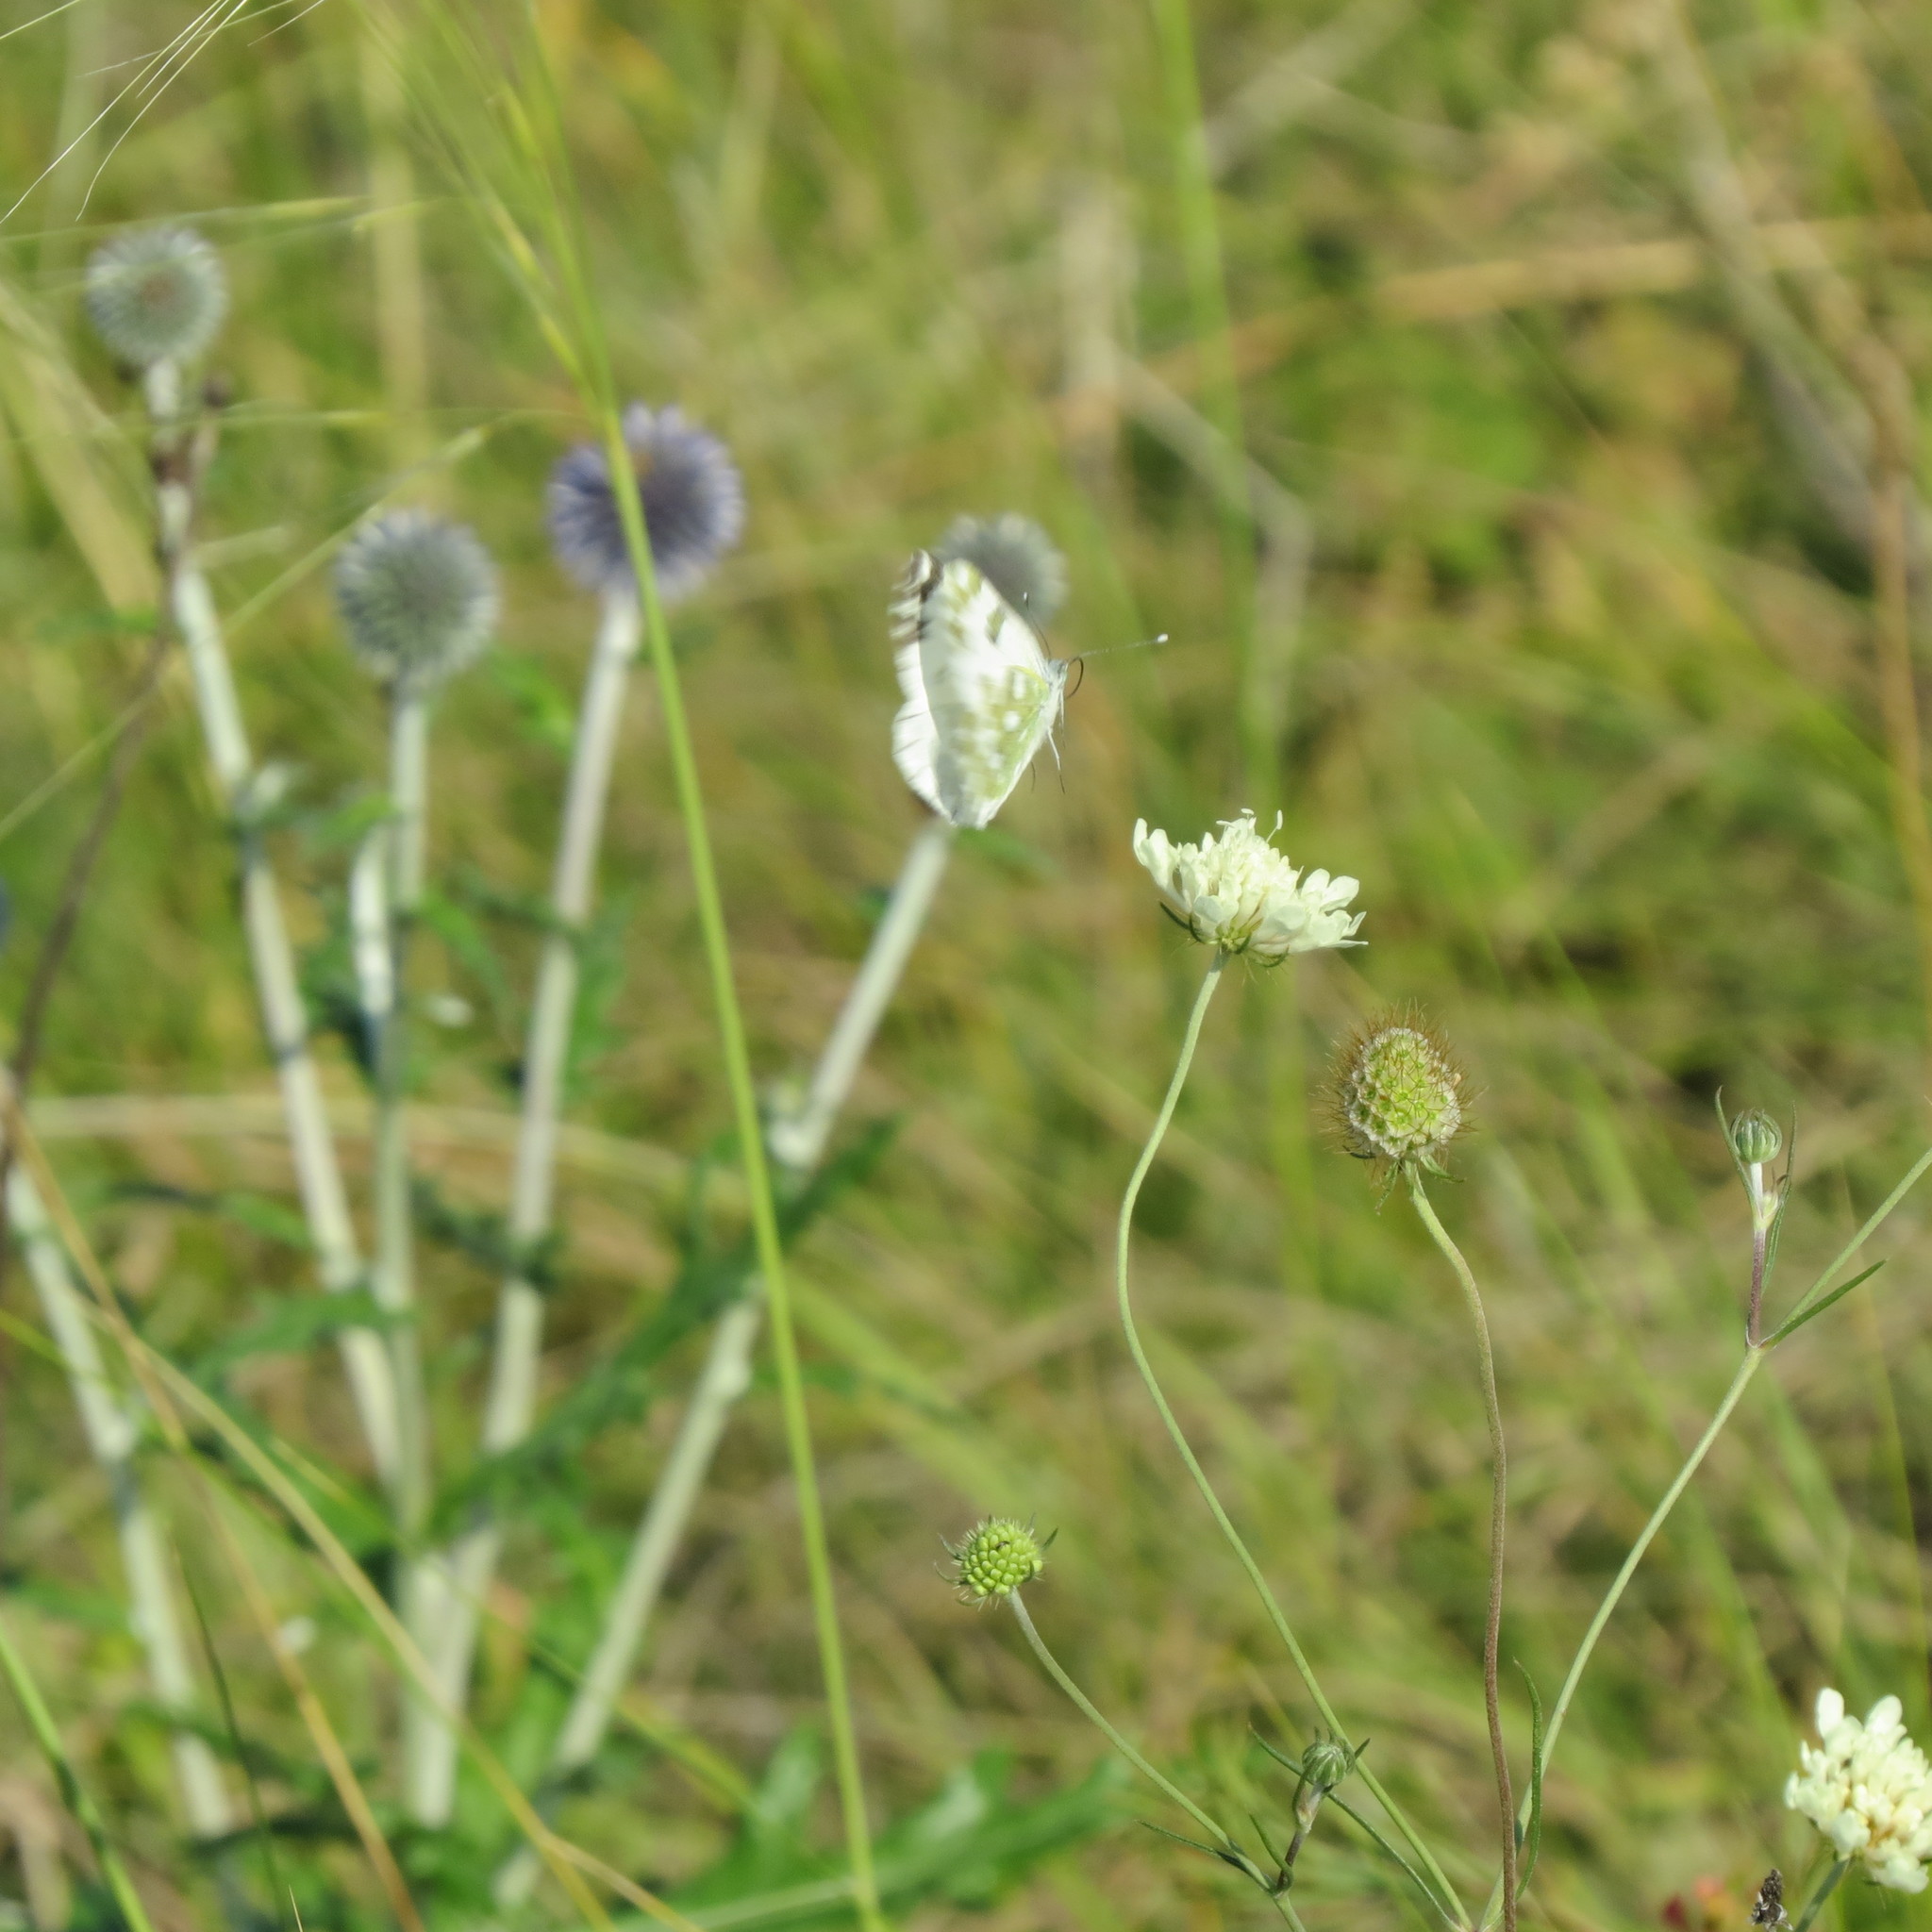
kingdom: Animalia
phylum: Arthropoda
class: Insecta
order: Lepidoptera
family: Pieridae
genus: Pontia
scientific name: Pontia edusa
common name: Eastern bath white
